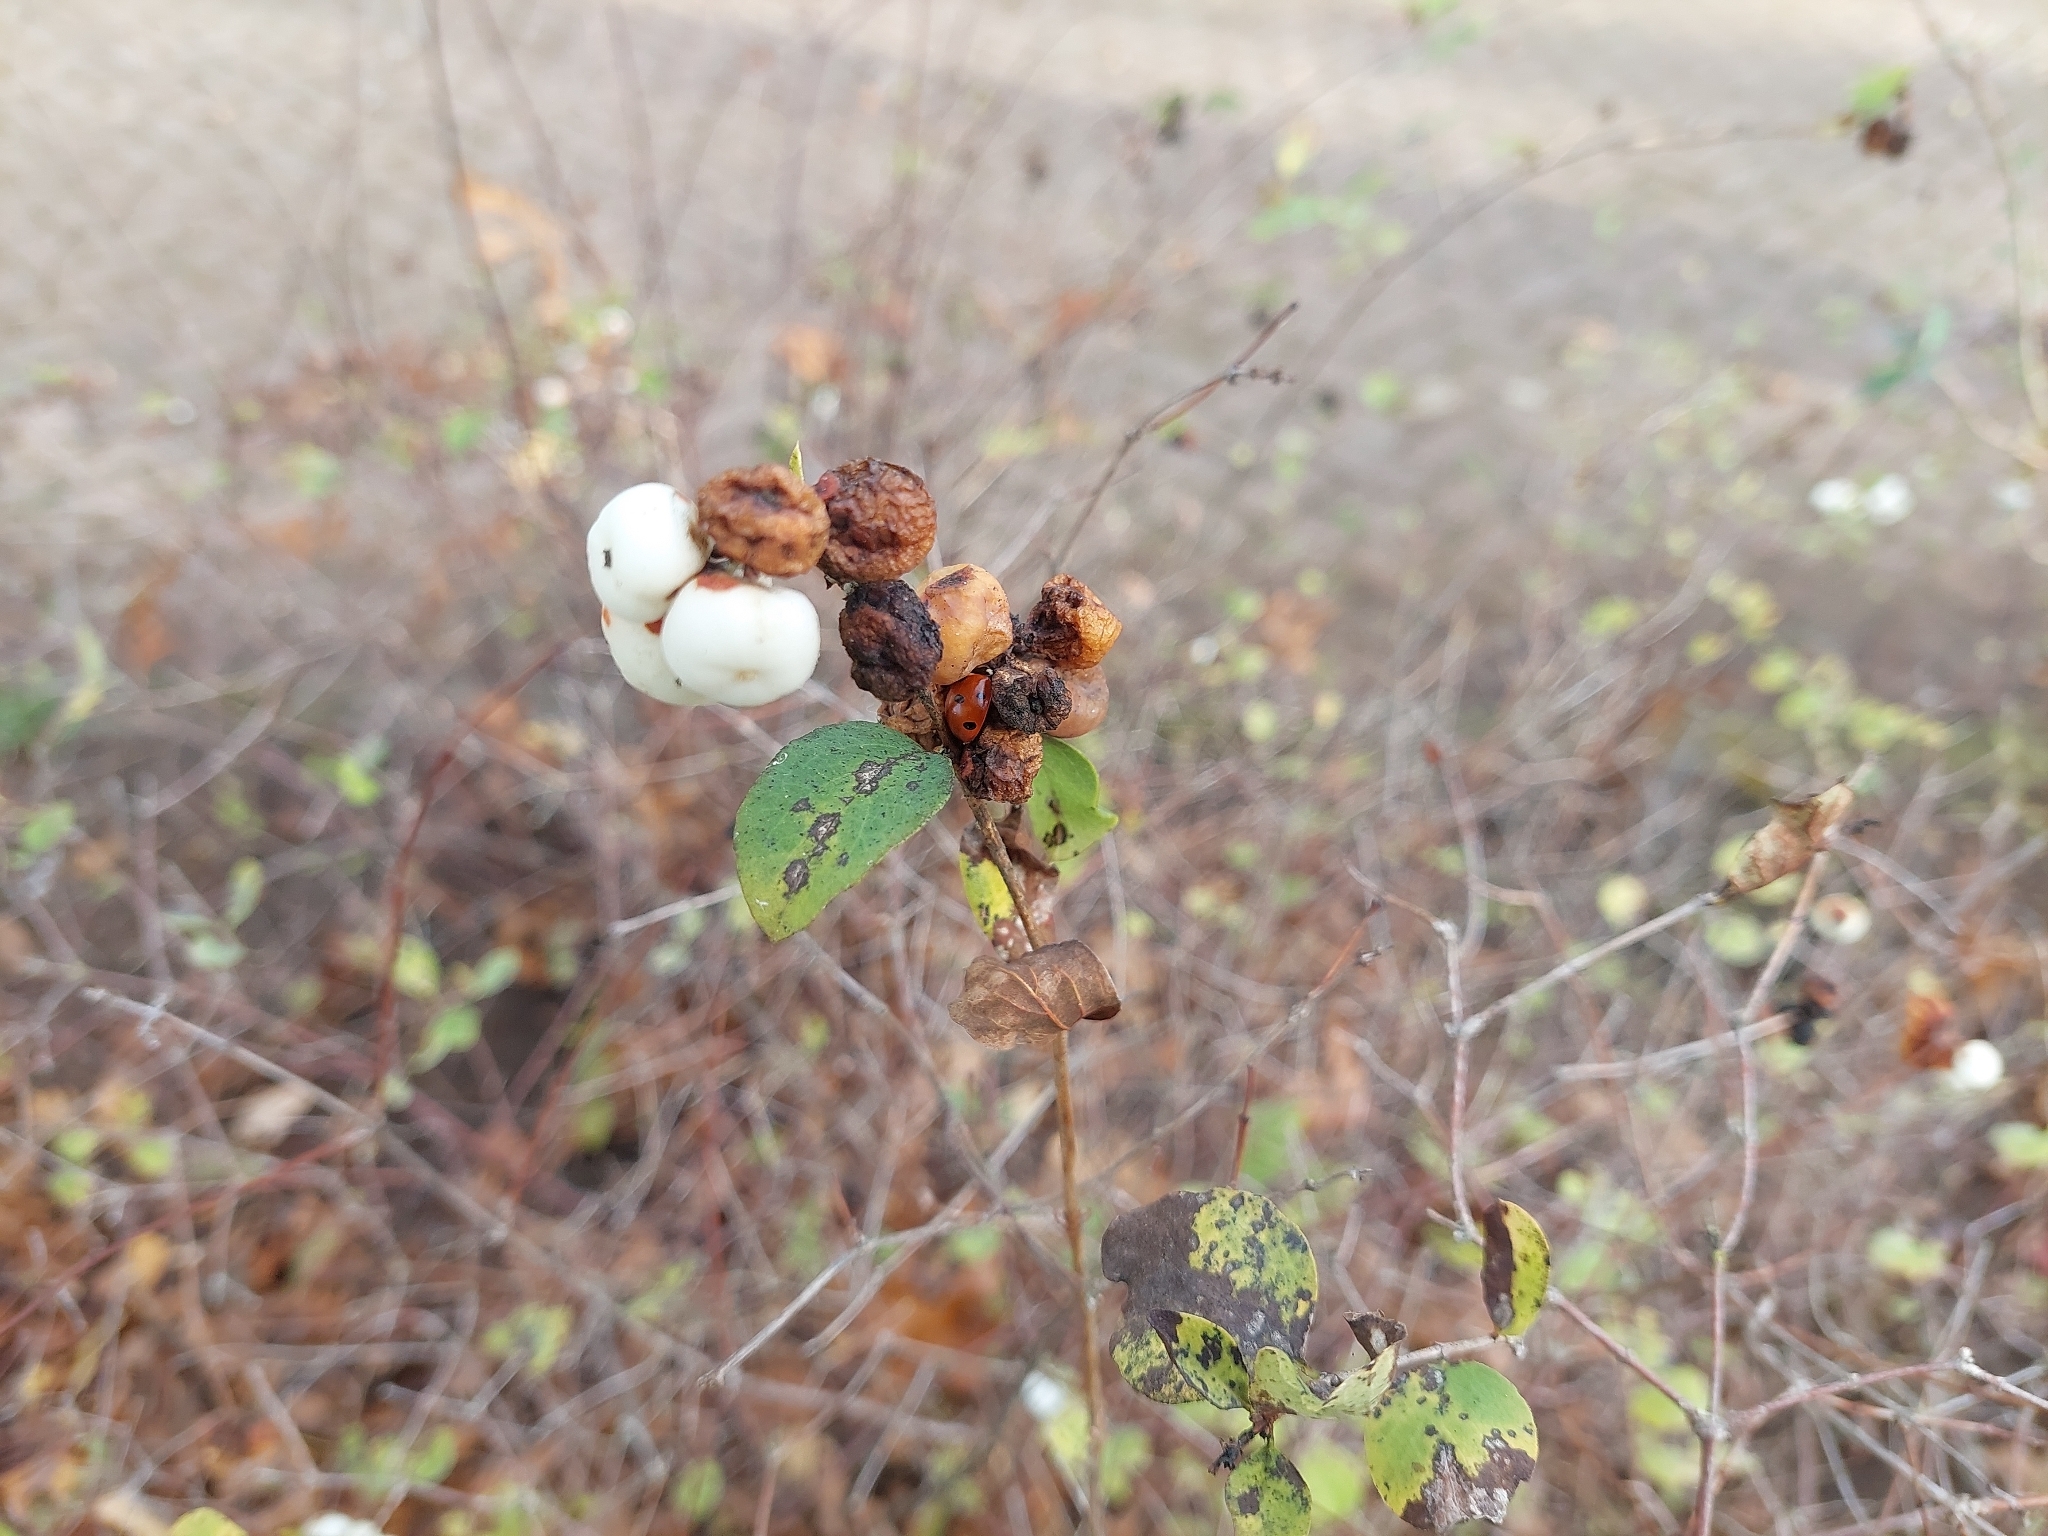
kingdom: Plantae
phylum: Tracheophyta
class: Magnoliopsida
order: Dipsacales
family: Caprifoliaceae
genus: Symphoricarpos
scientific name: Symphoricarpos albus
